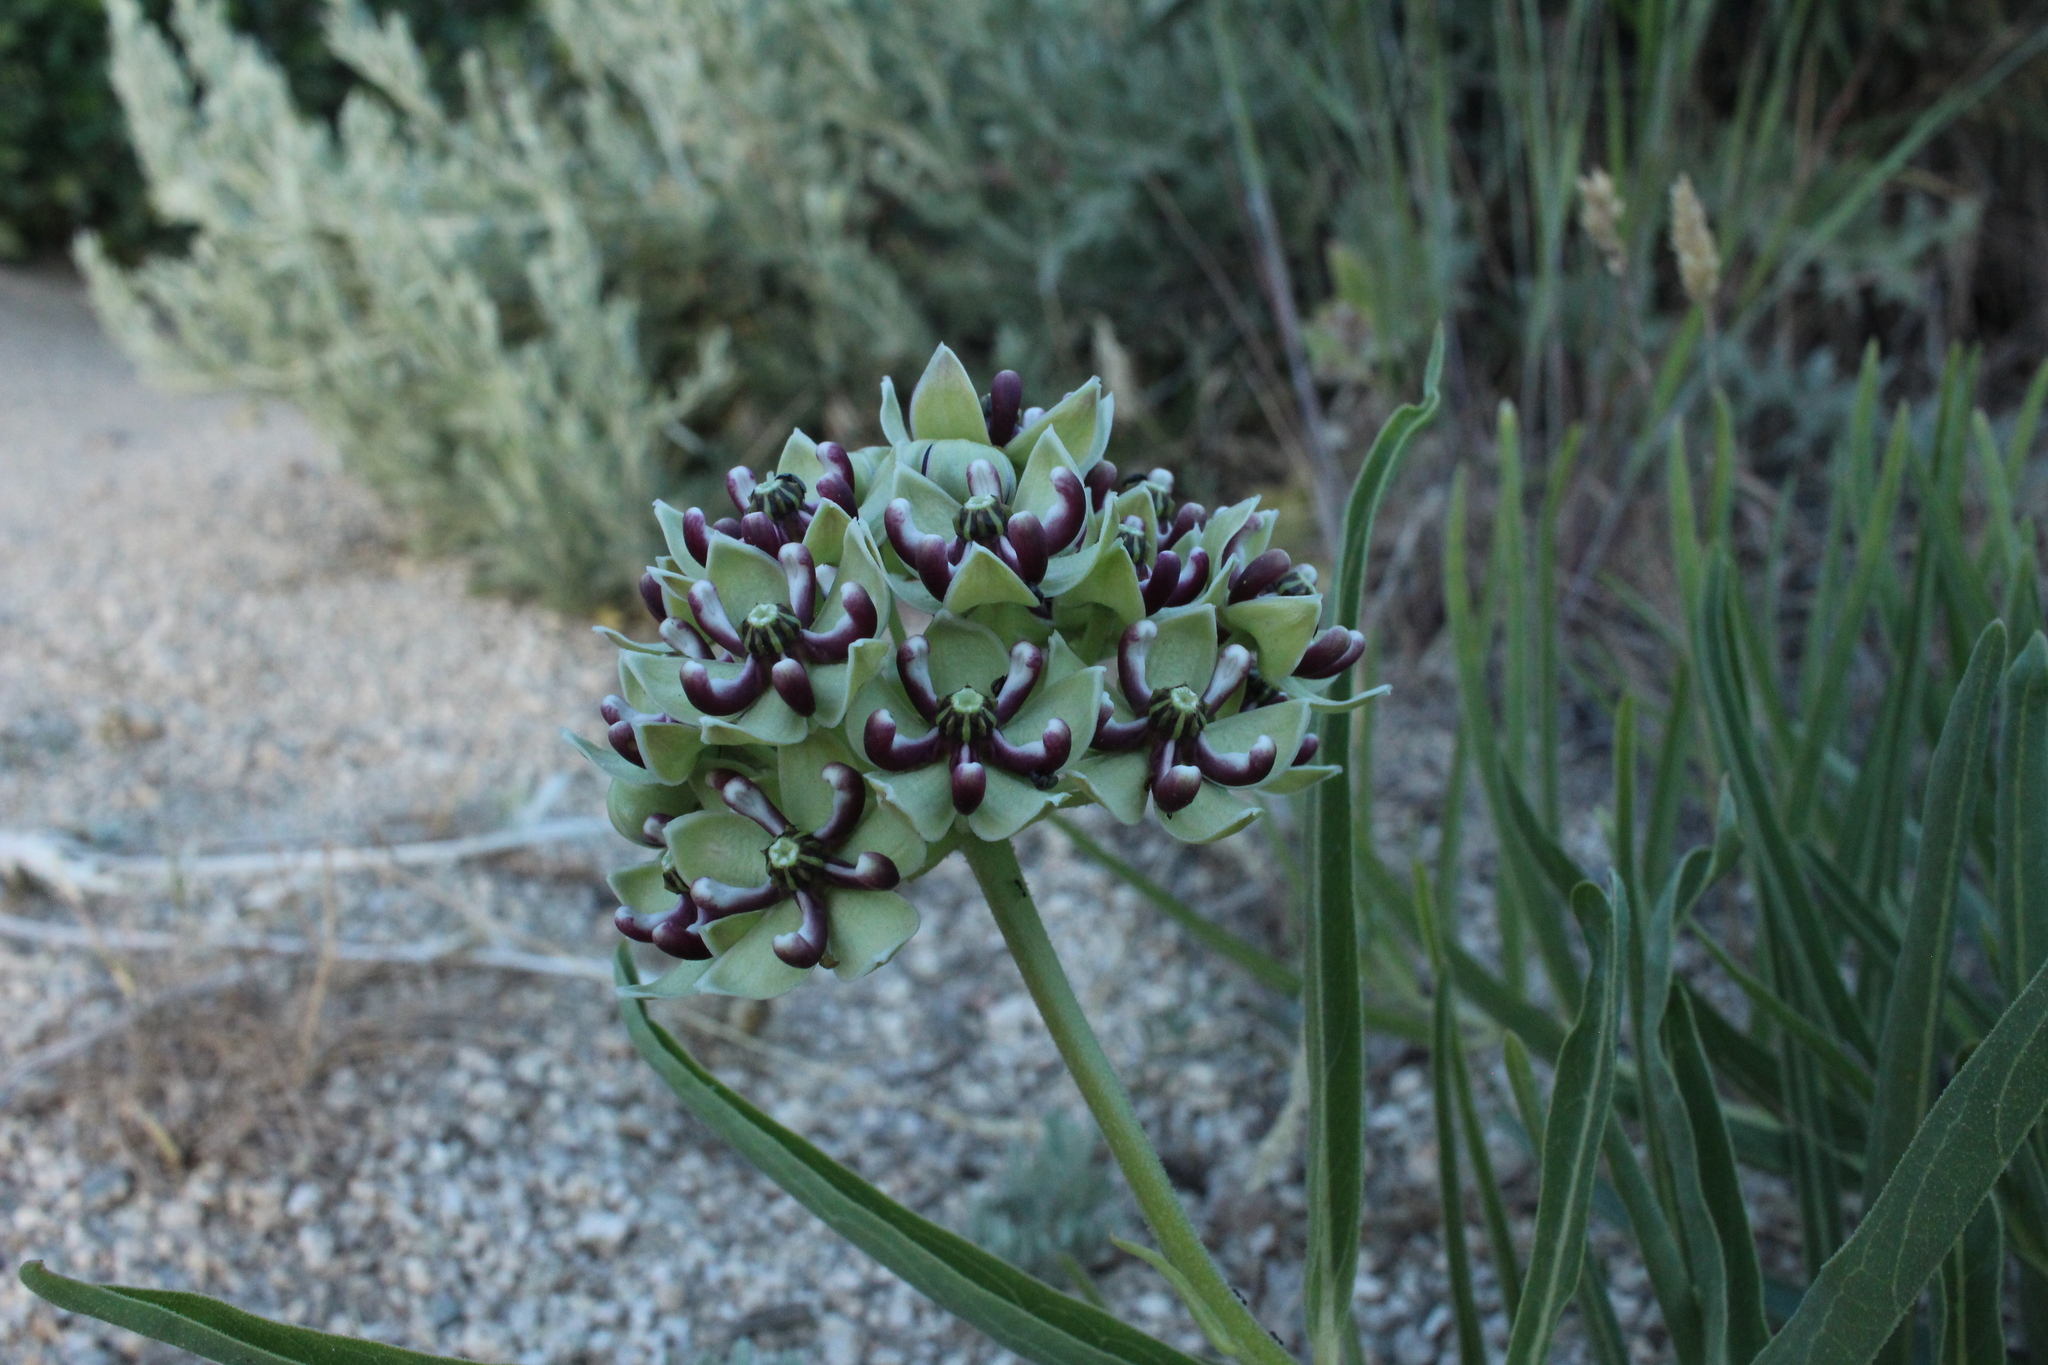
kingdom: Plantae
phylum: Tracheophyta
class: Magnoliopsida
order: Gentianales
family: Apocynaceae
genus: Asclepias
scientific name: Asclepias asperula
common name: Antelope horns
